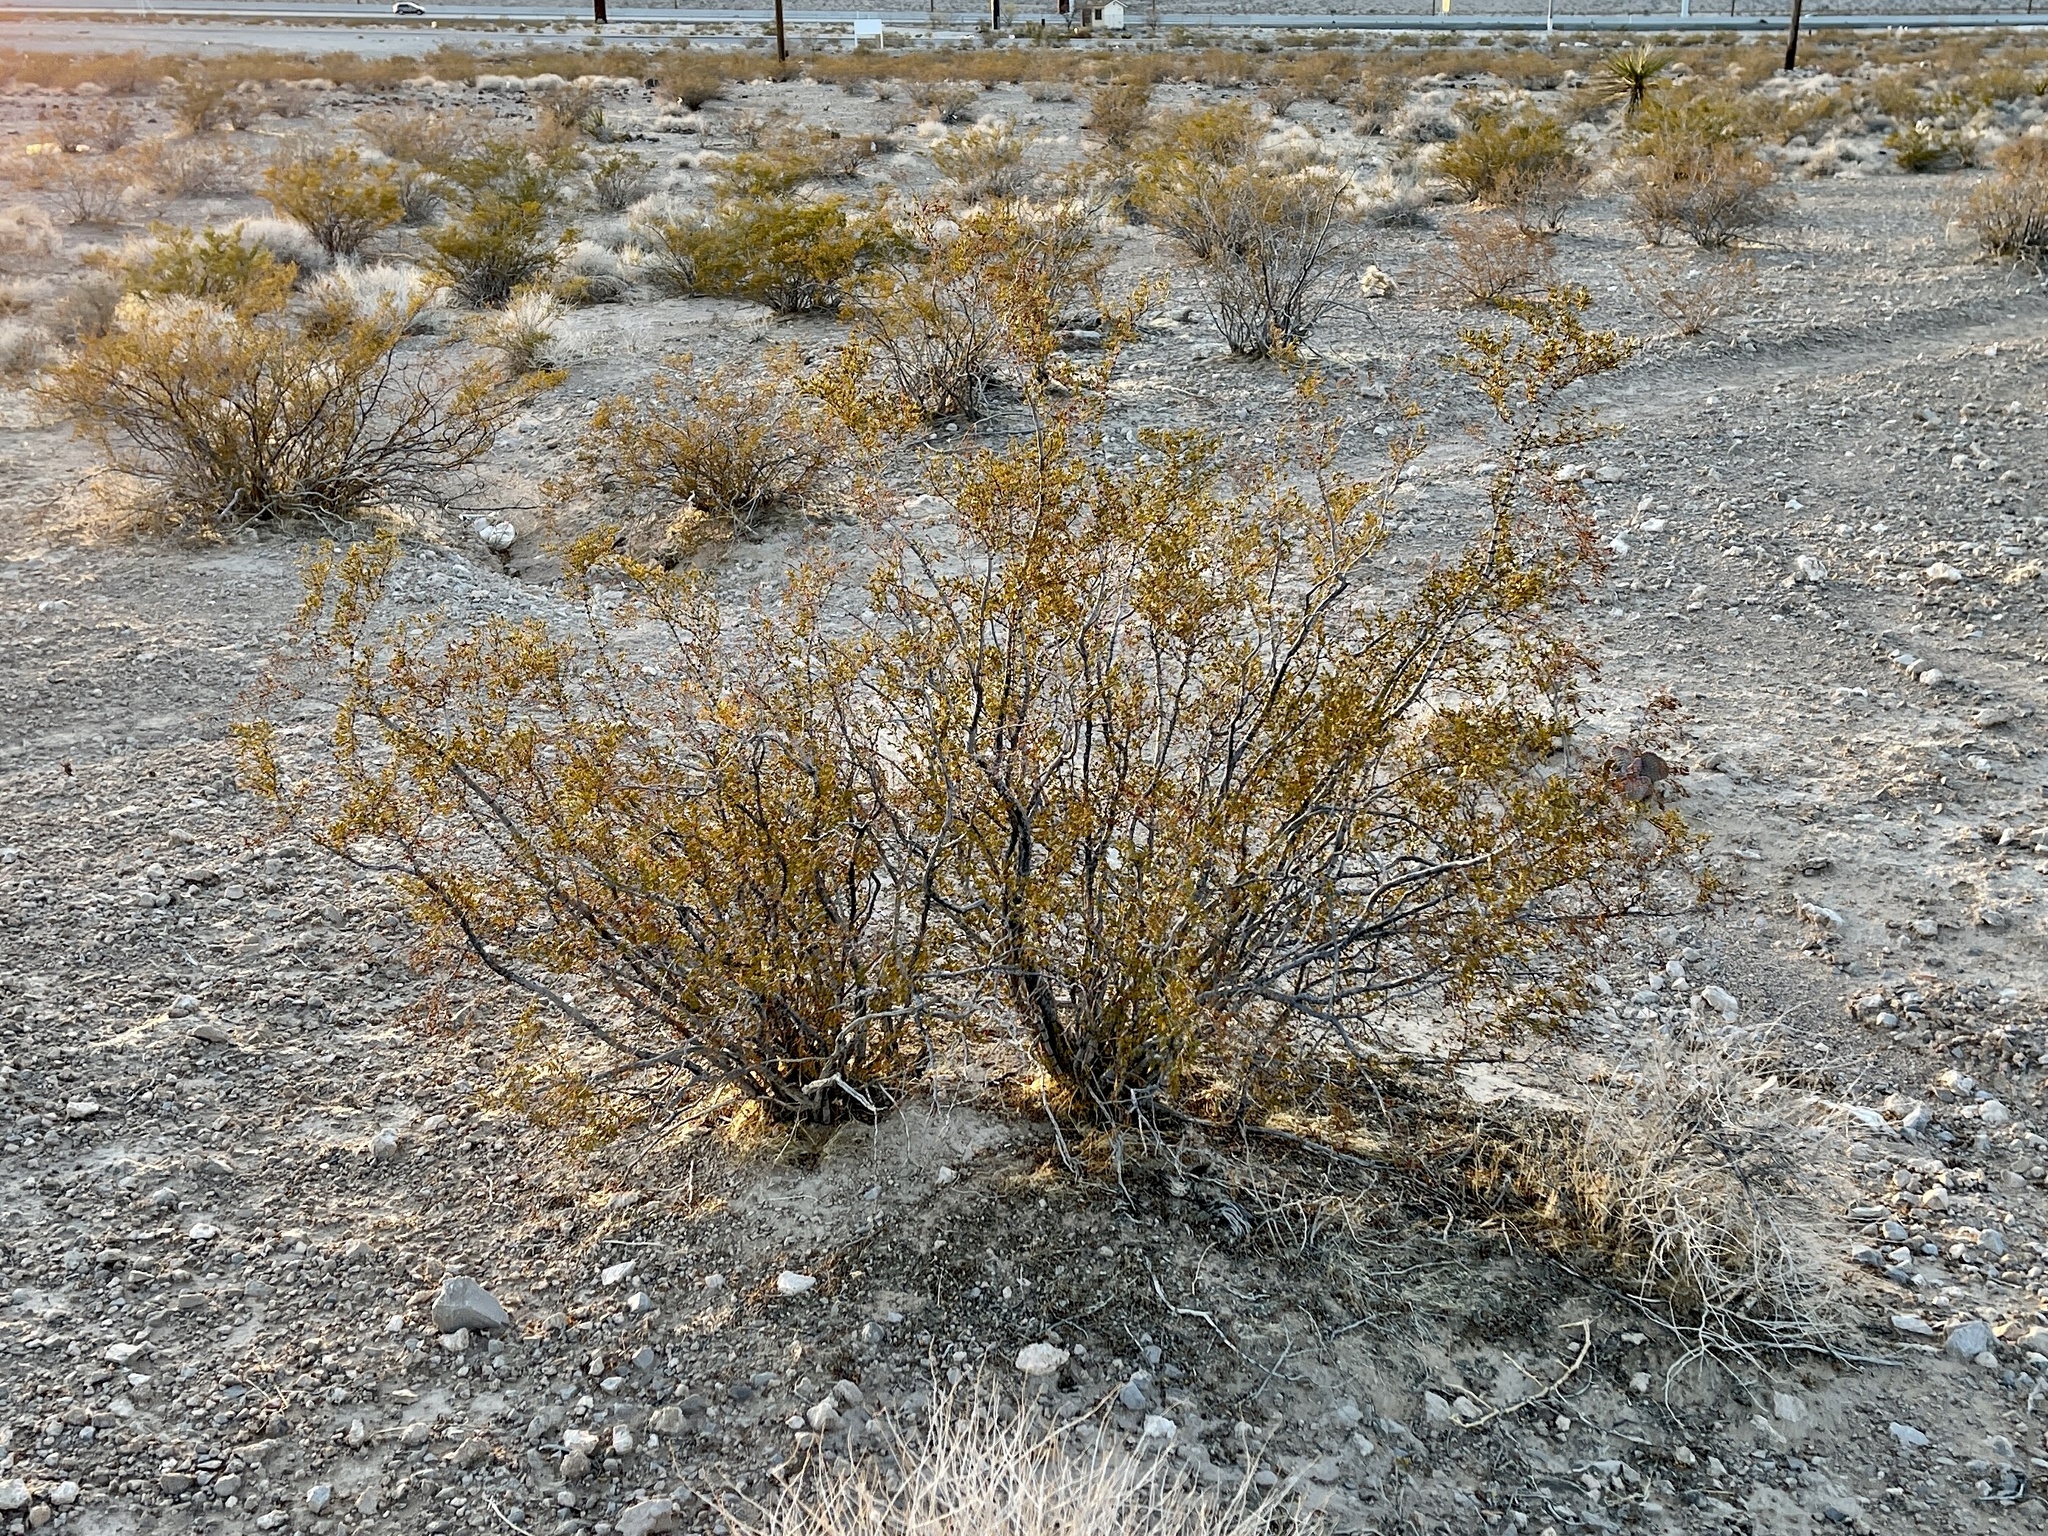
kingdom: Plantae
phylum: Tracheophyta
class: Magnoliopsida
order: Zygophyllales
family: Zygophyllaceae
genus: Larrea
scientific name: Larrea tridentata
